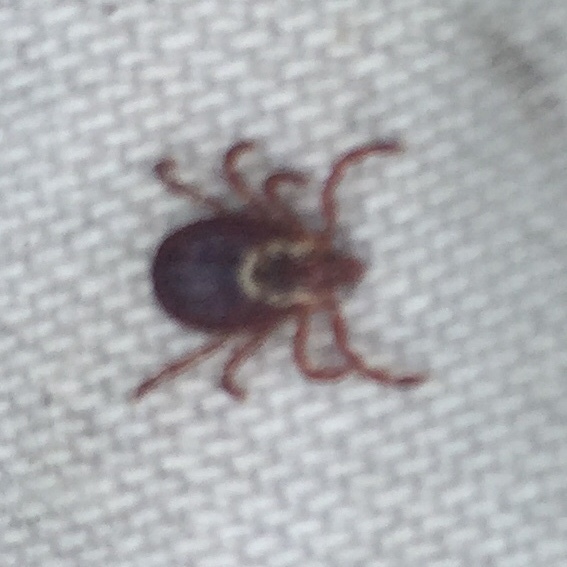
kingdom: Animalia
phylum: Arthropoda
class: Arachnida
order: Ixodida
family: Ixodidae
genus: Dermacentor
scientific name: Dermacentor variabilis
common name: American dog tick
